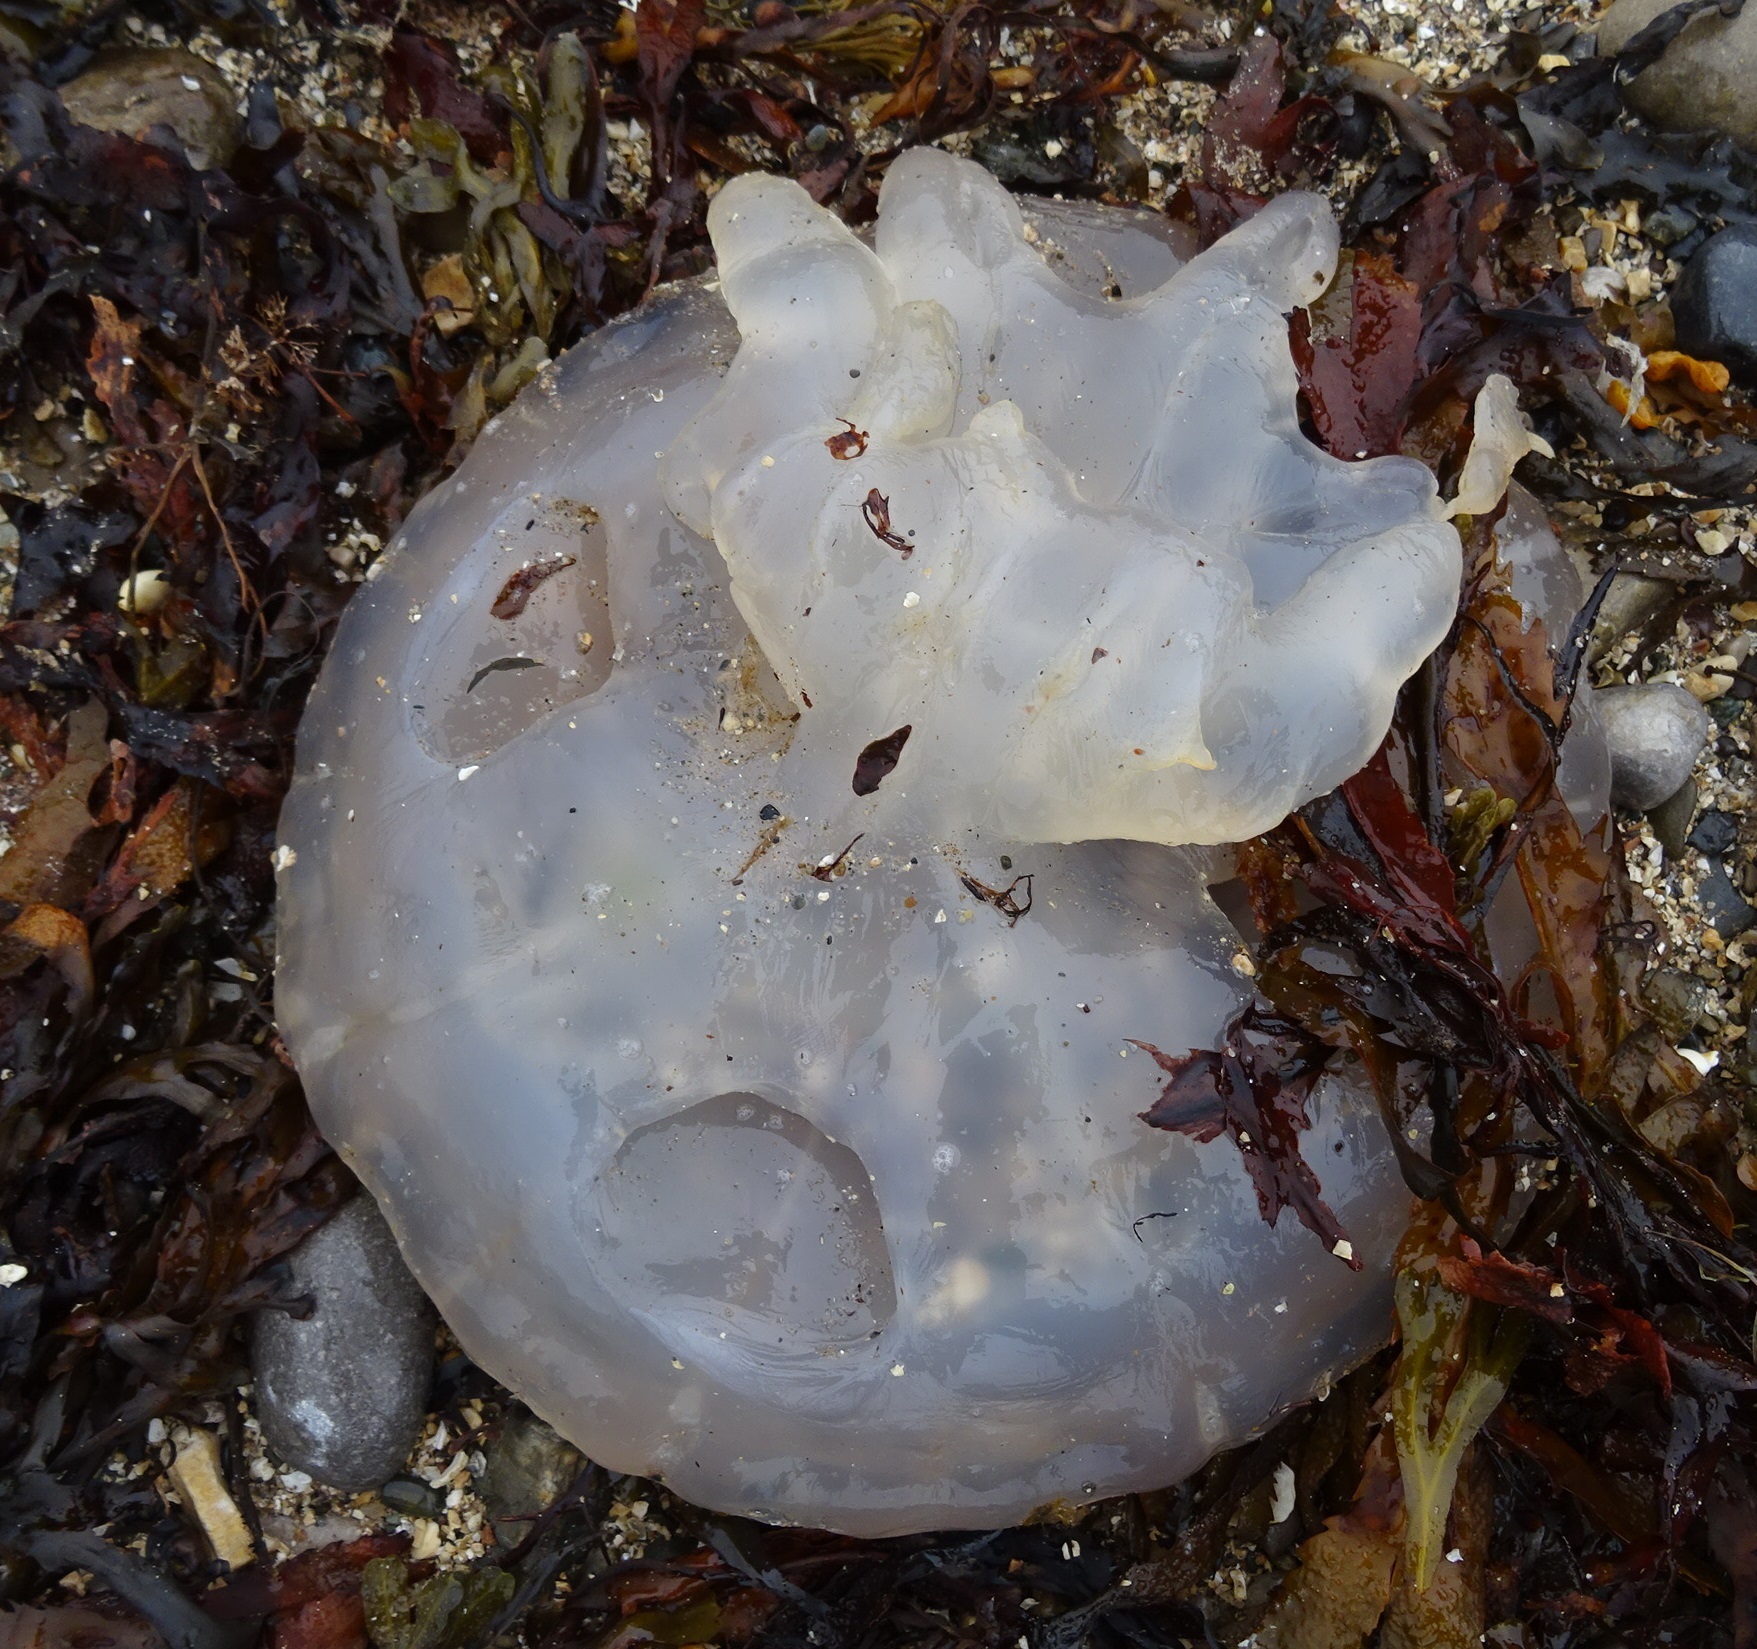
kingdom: Animalia
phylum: Cnidaria
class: Scyphozoa
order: Rhizostomeae
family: Rhizostomatidae
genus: Rhizostoma
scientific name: Rhizostoma octopus
